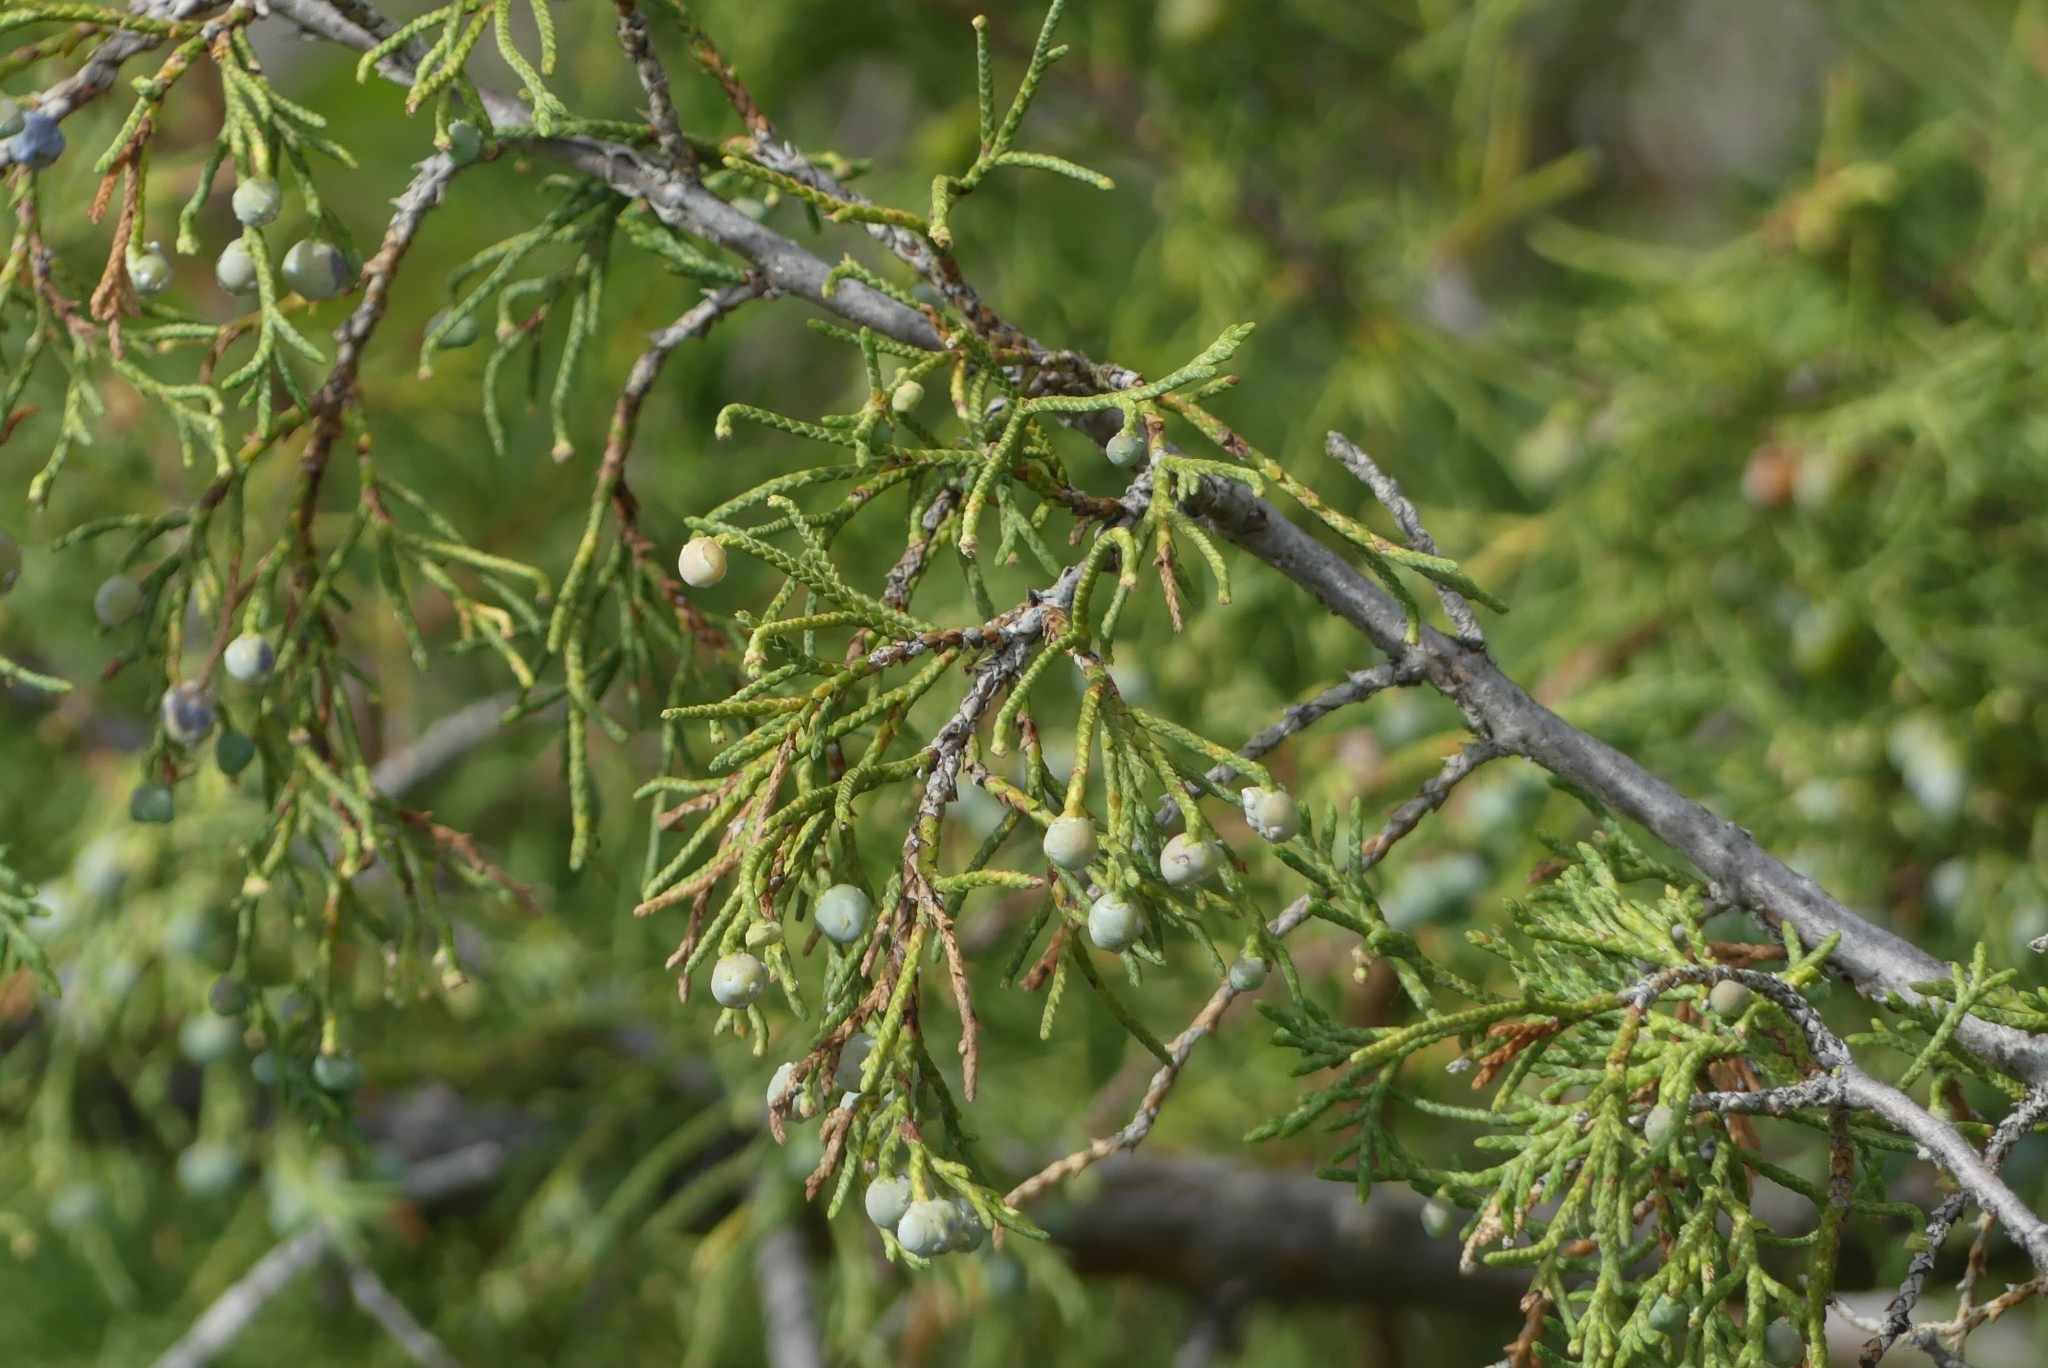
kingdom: Plantae
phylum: Tracheophyta
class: Pinopsida
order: Pinales
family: Cupressaceae
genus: Juniperus
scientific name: Juniperus scopulorum
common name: Rocky mountain juniper
